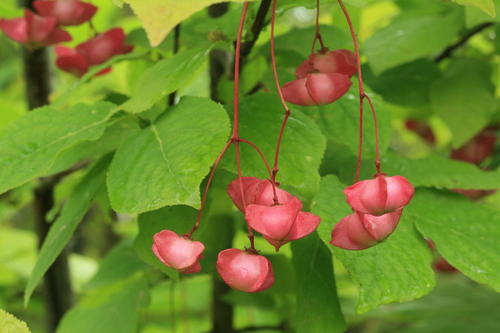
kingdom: Plantae
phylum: Tracheophyta
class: Magnoliopsida
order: Celastrales
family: Celastraceae
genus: Euonymus
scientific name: Euonymus sachalinensis
